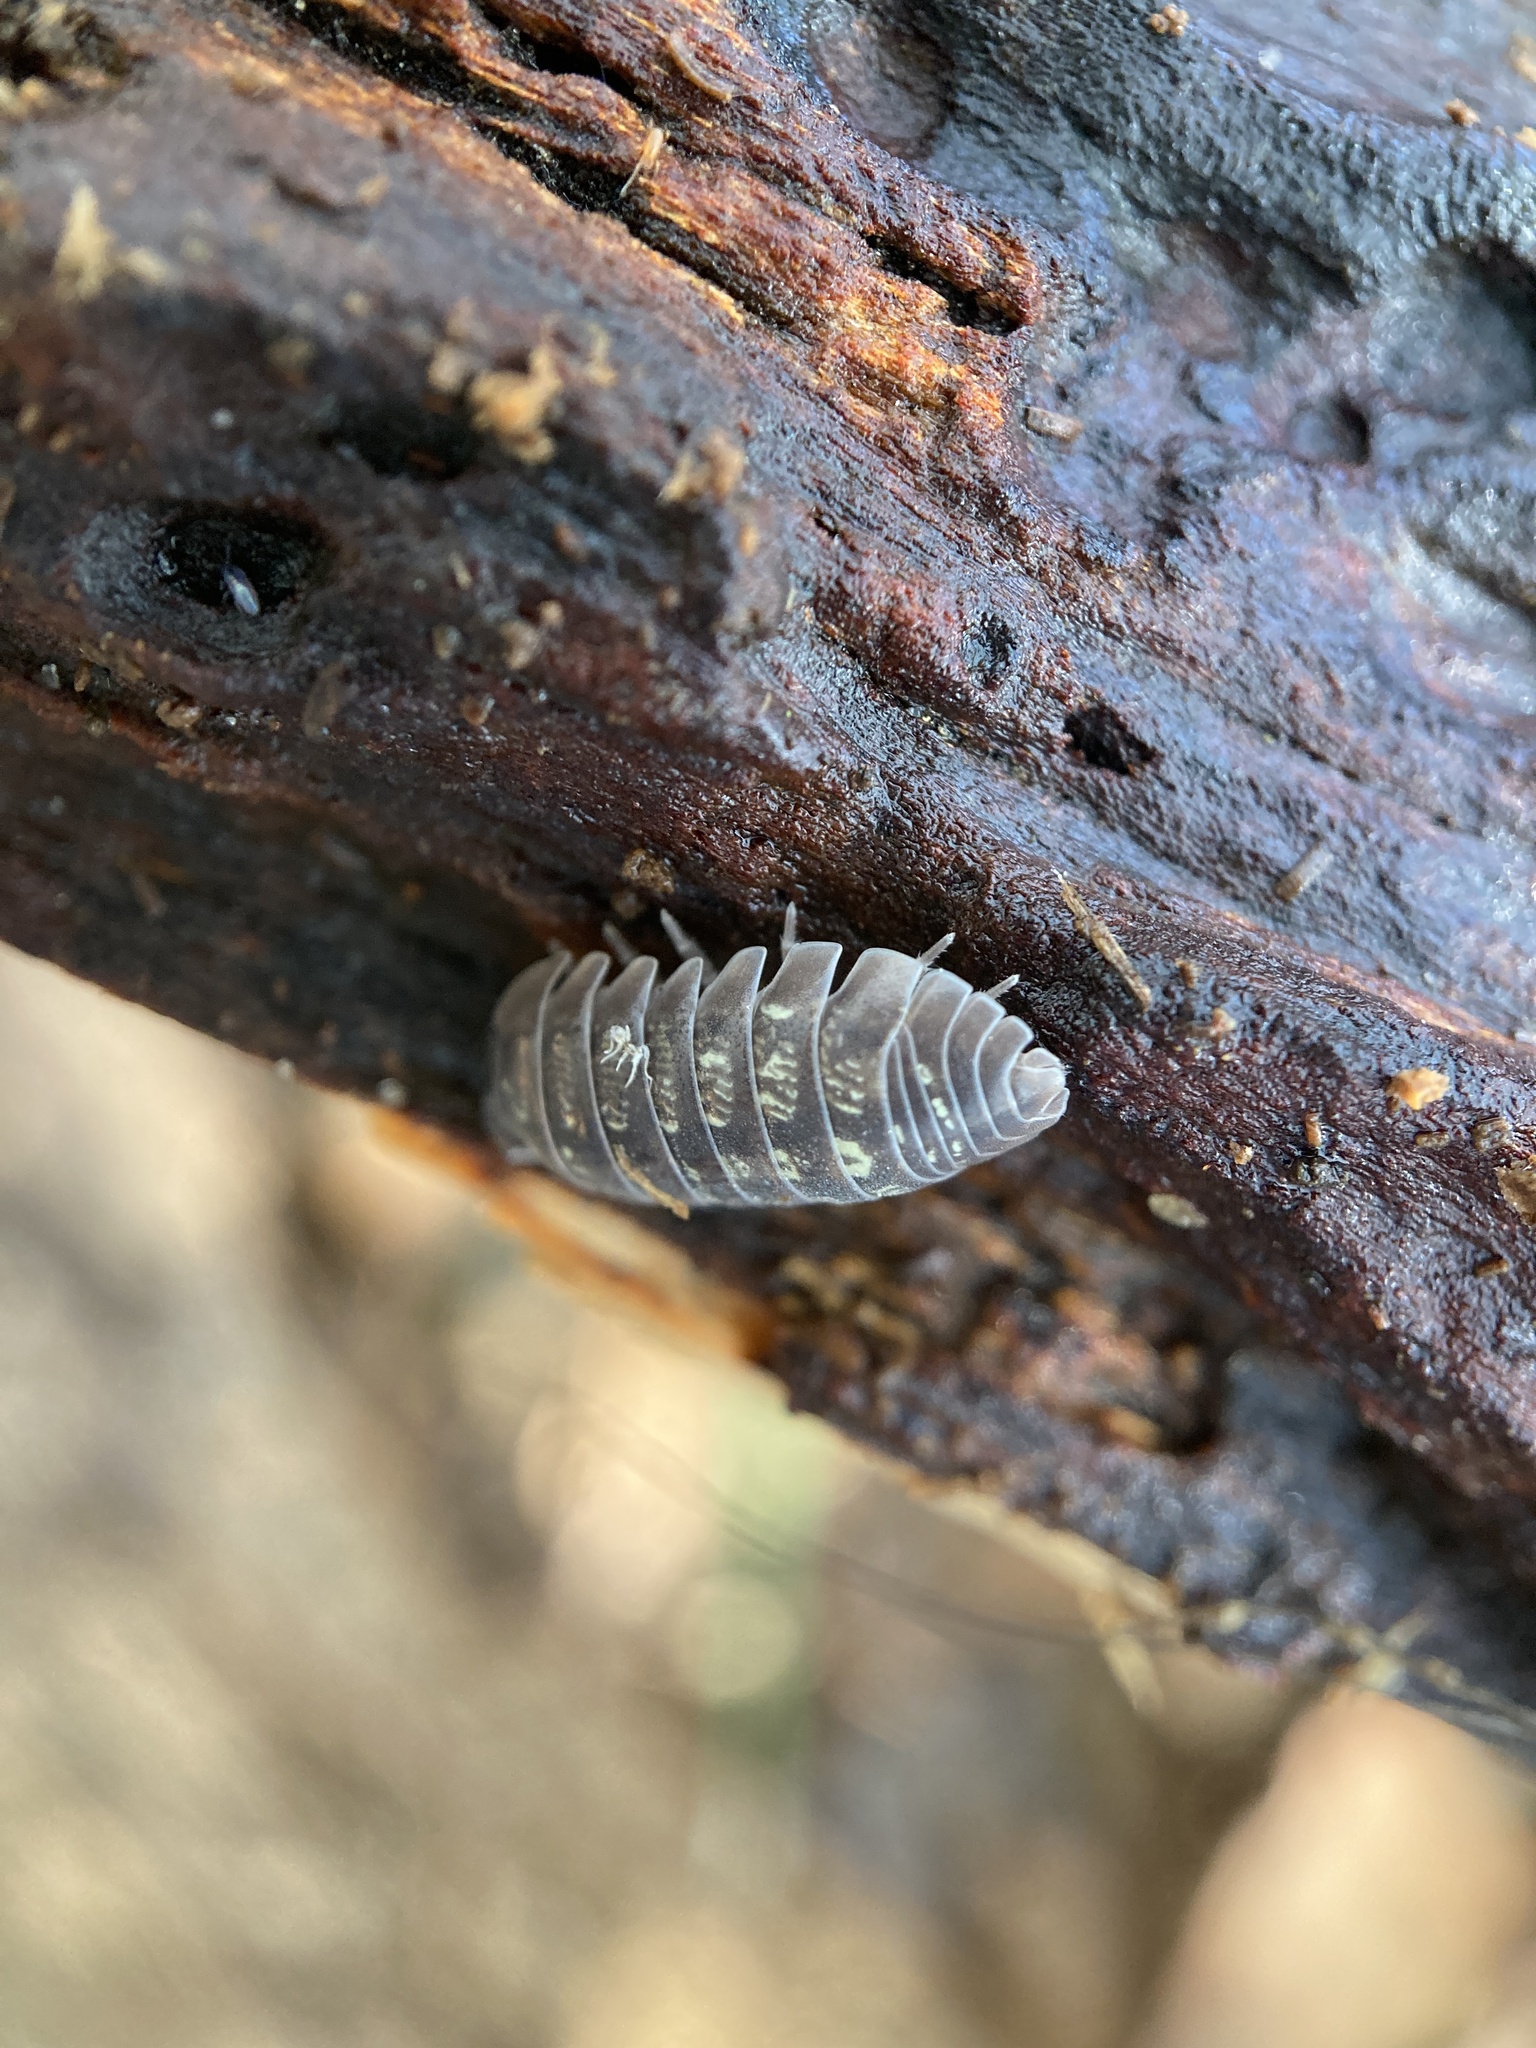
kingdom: Animalia
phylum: Arthropoda
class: Malacostraca
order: Isopoda
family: Armadillidiidae
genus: Armadillidium
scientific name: Armadillidium vulgare
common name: Common pill woodlouse
